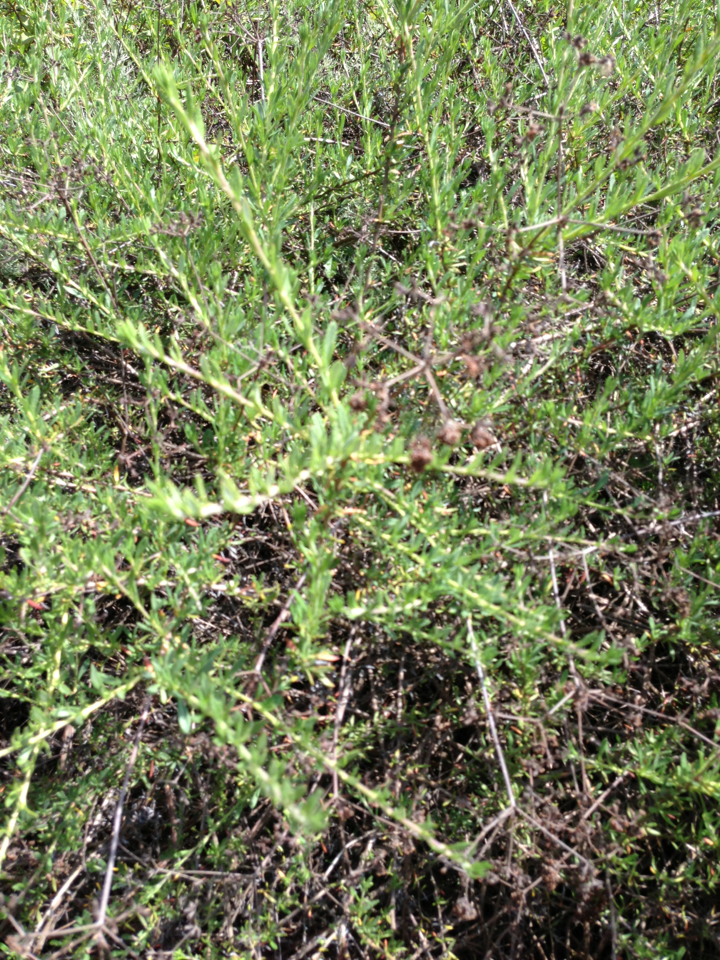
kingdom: Plantae
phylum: Tracheophyta
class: Magnoliopsida
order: Caryophyllales
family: Polygonaceae
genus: Eriogonum
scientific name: Eriogonum fasciculatum
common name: California wild buckwheat
